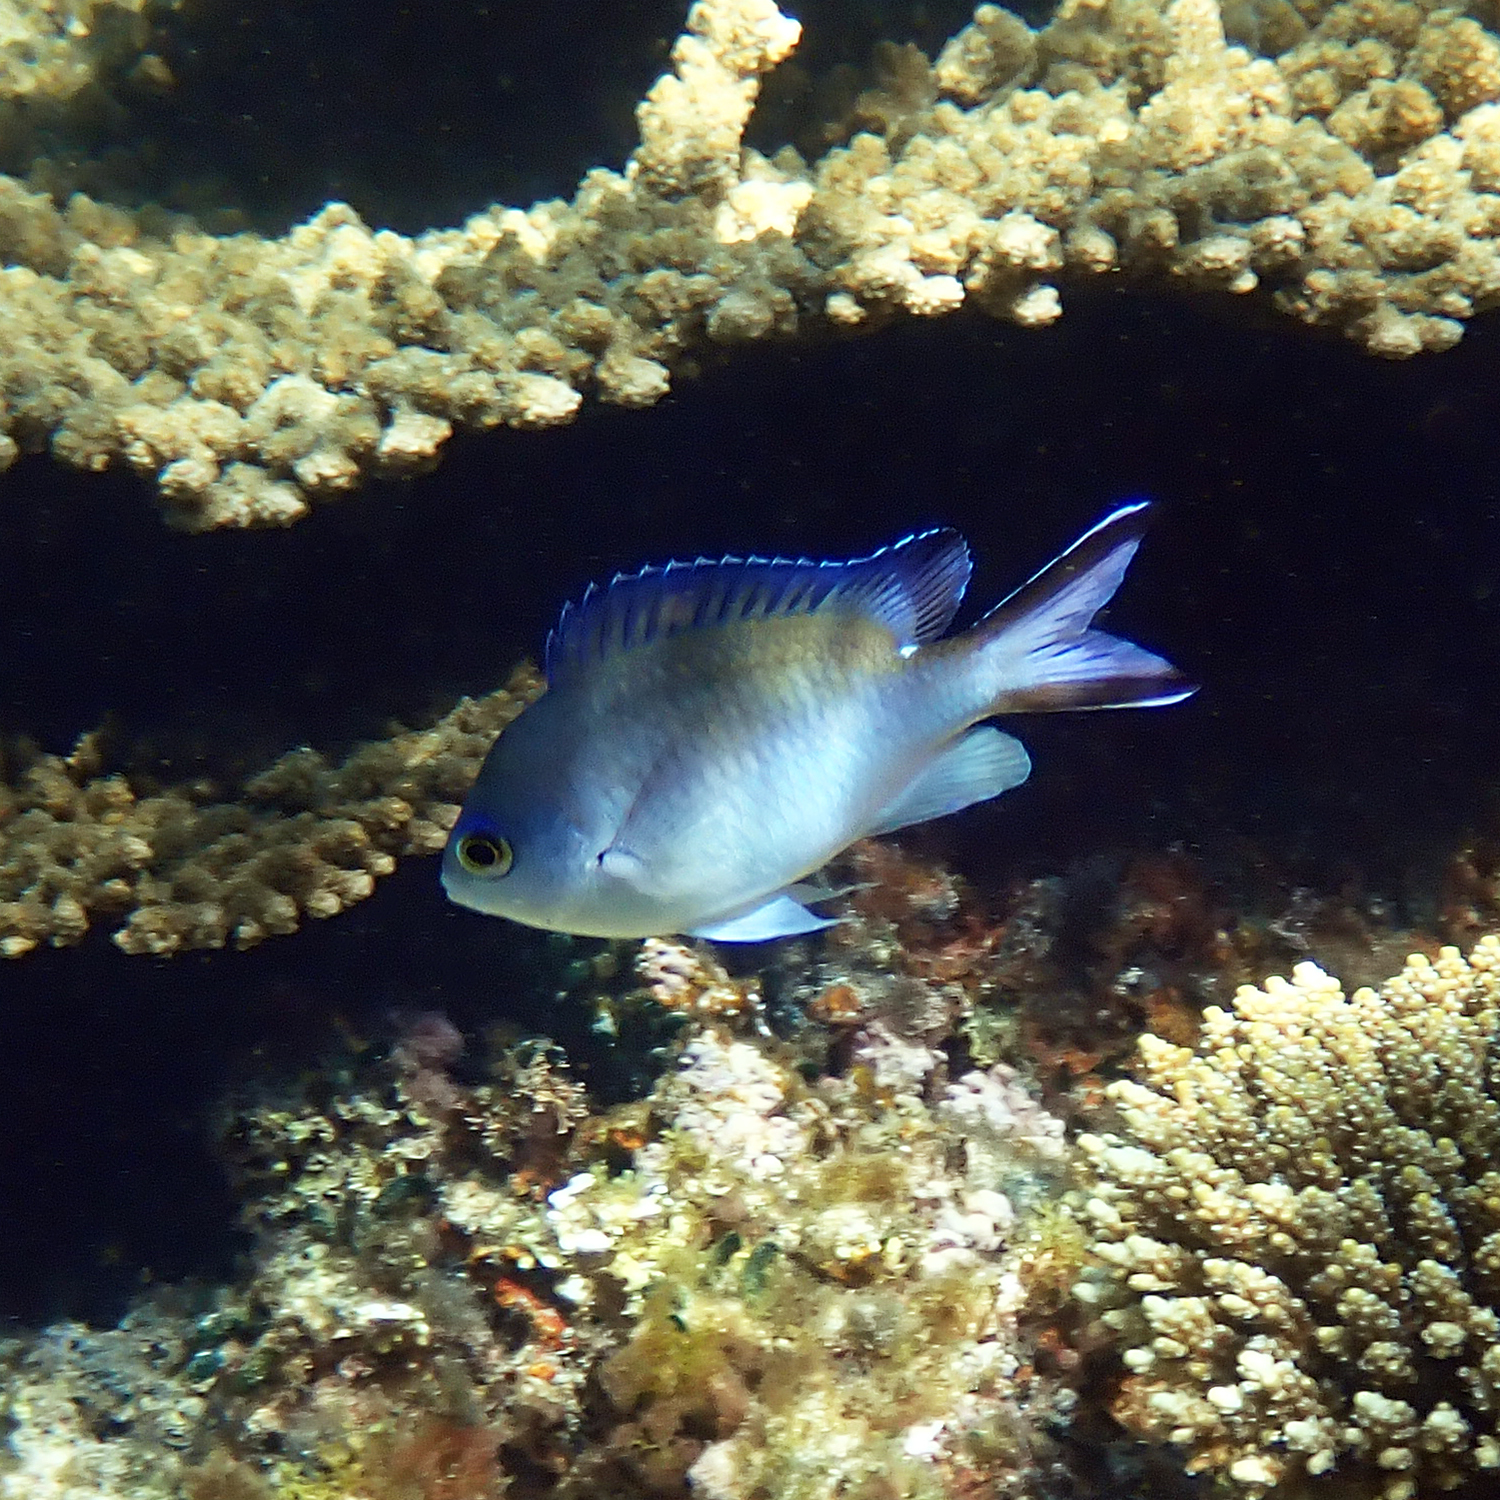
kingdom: Animalia
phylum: Chordata
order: Perciformes
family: Pomacentridae
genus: Chromis
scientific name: Chromis norfolkensis
